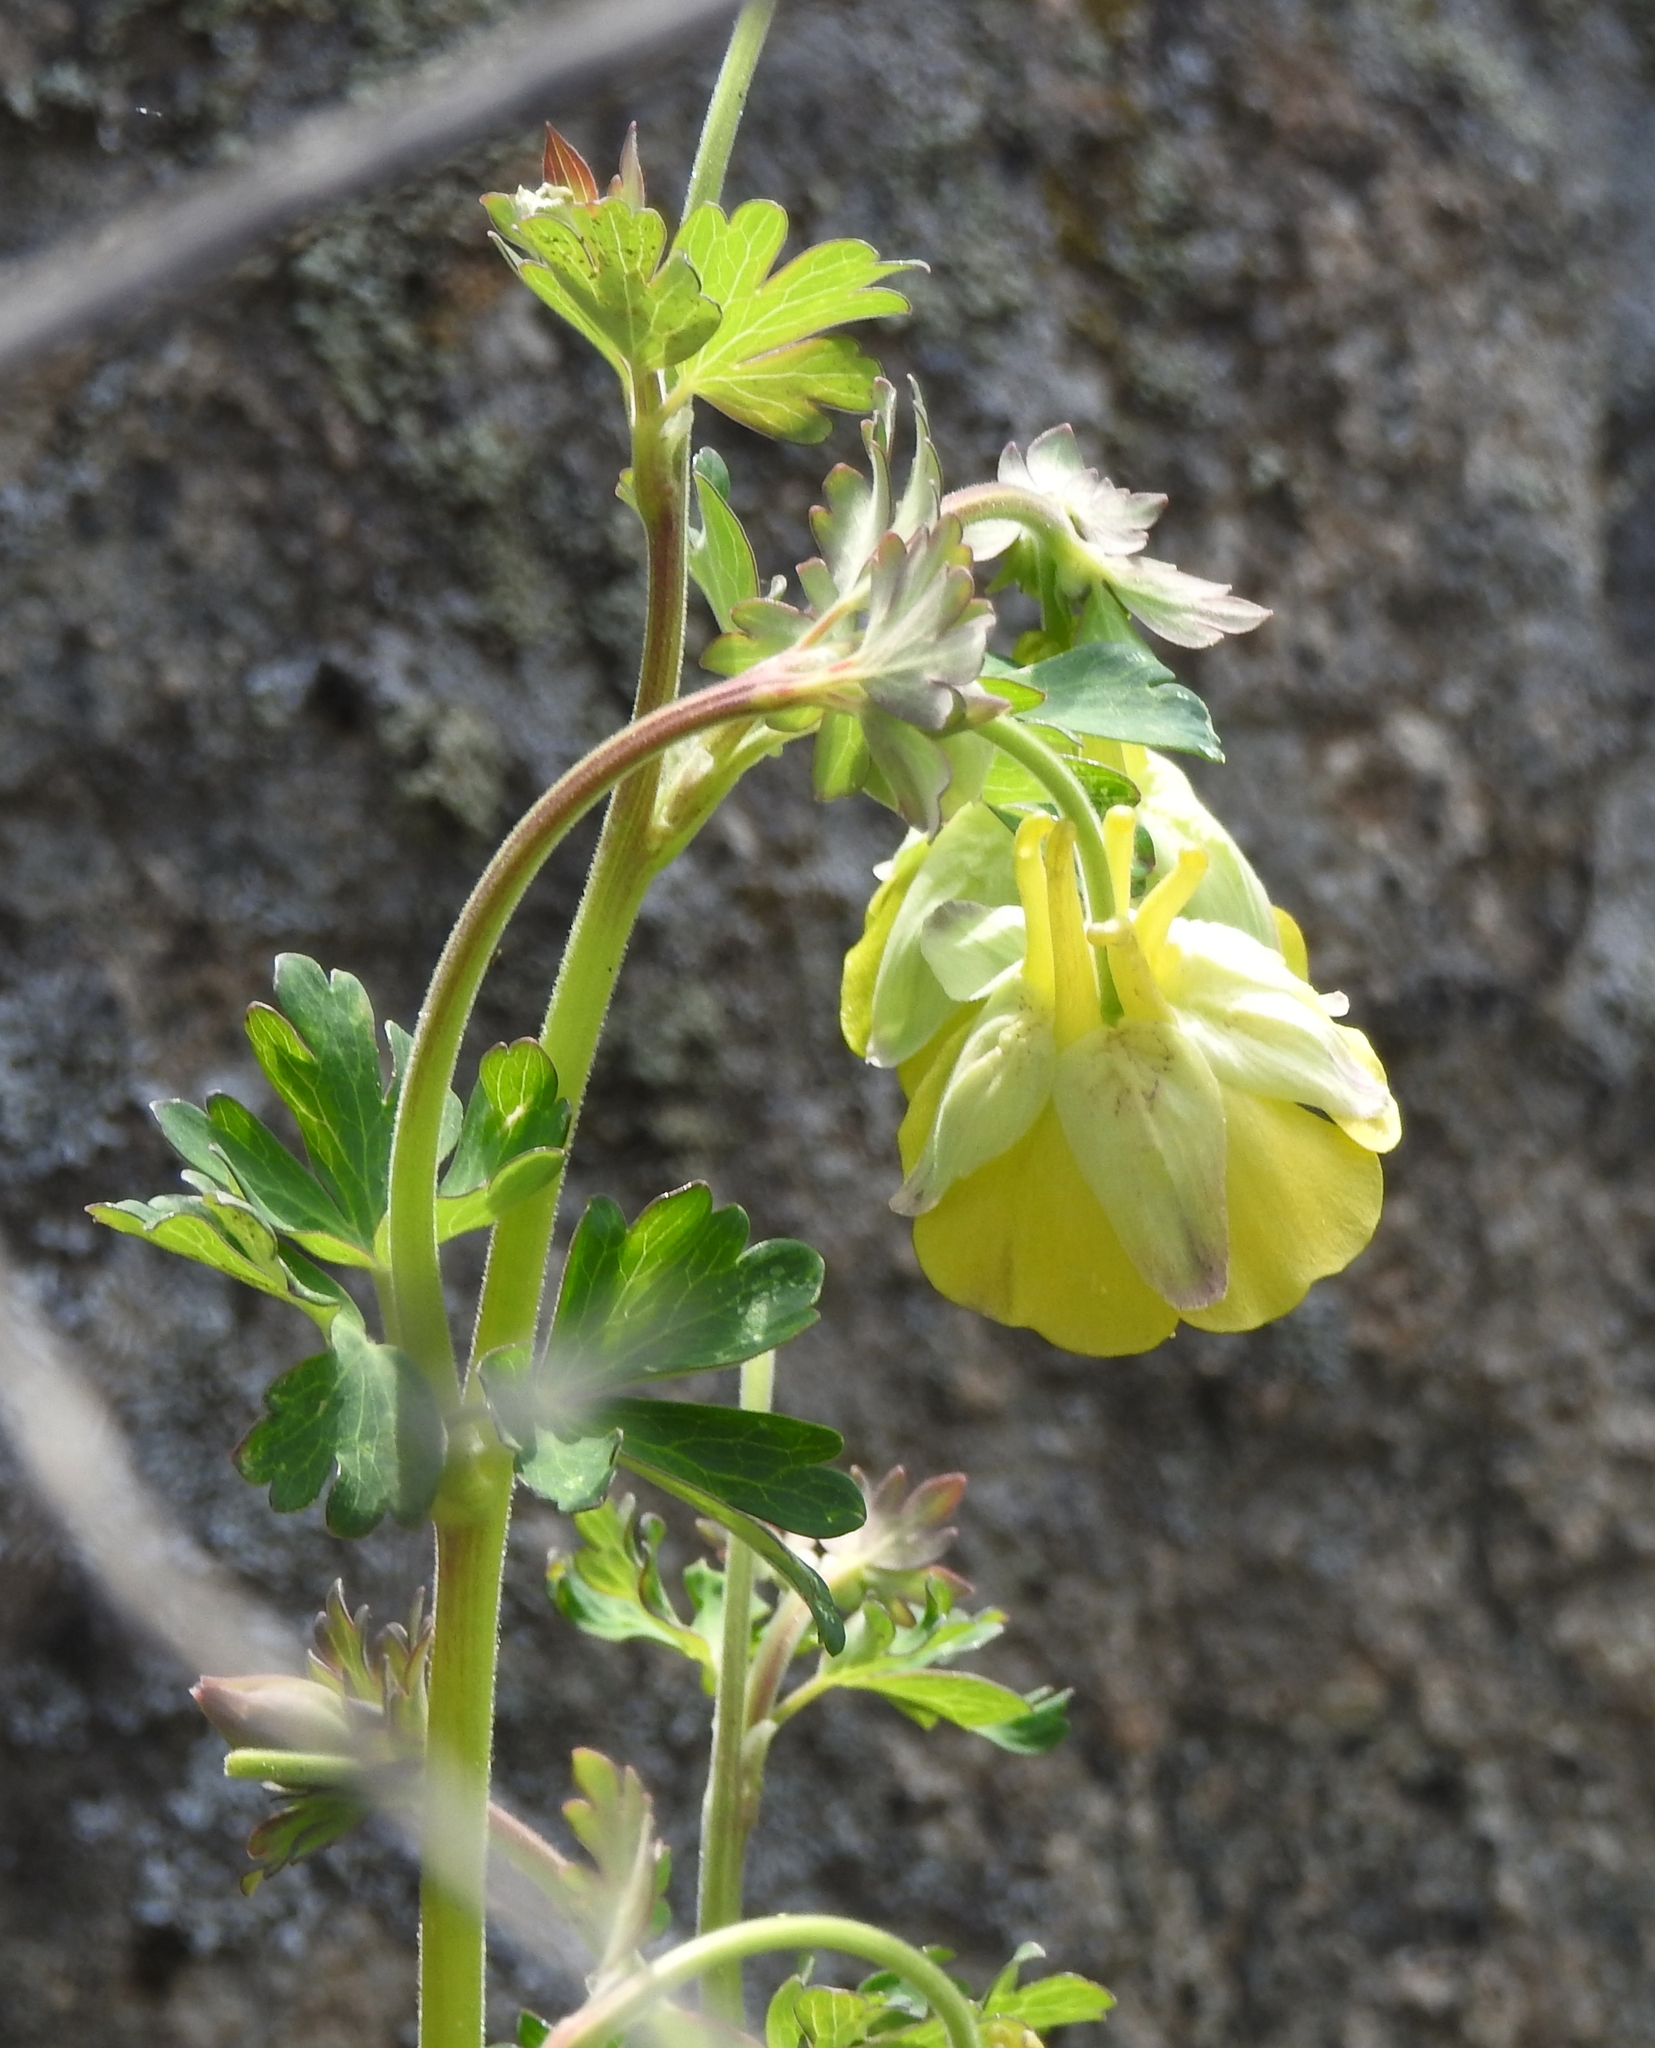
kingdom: Plantae
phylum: Tracheophyta
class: Magnoliopsida
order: Ranunculales
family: Ranunculaceae
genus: Aquilegia
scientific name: Aquilegia viridiflora
